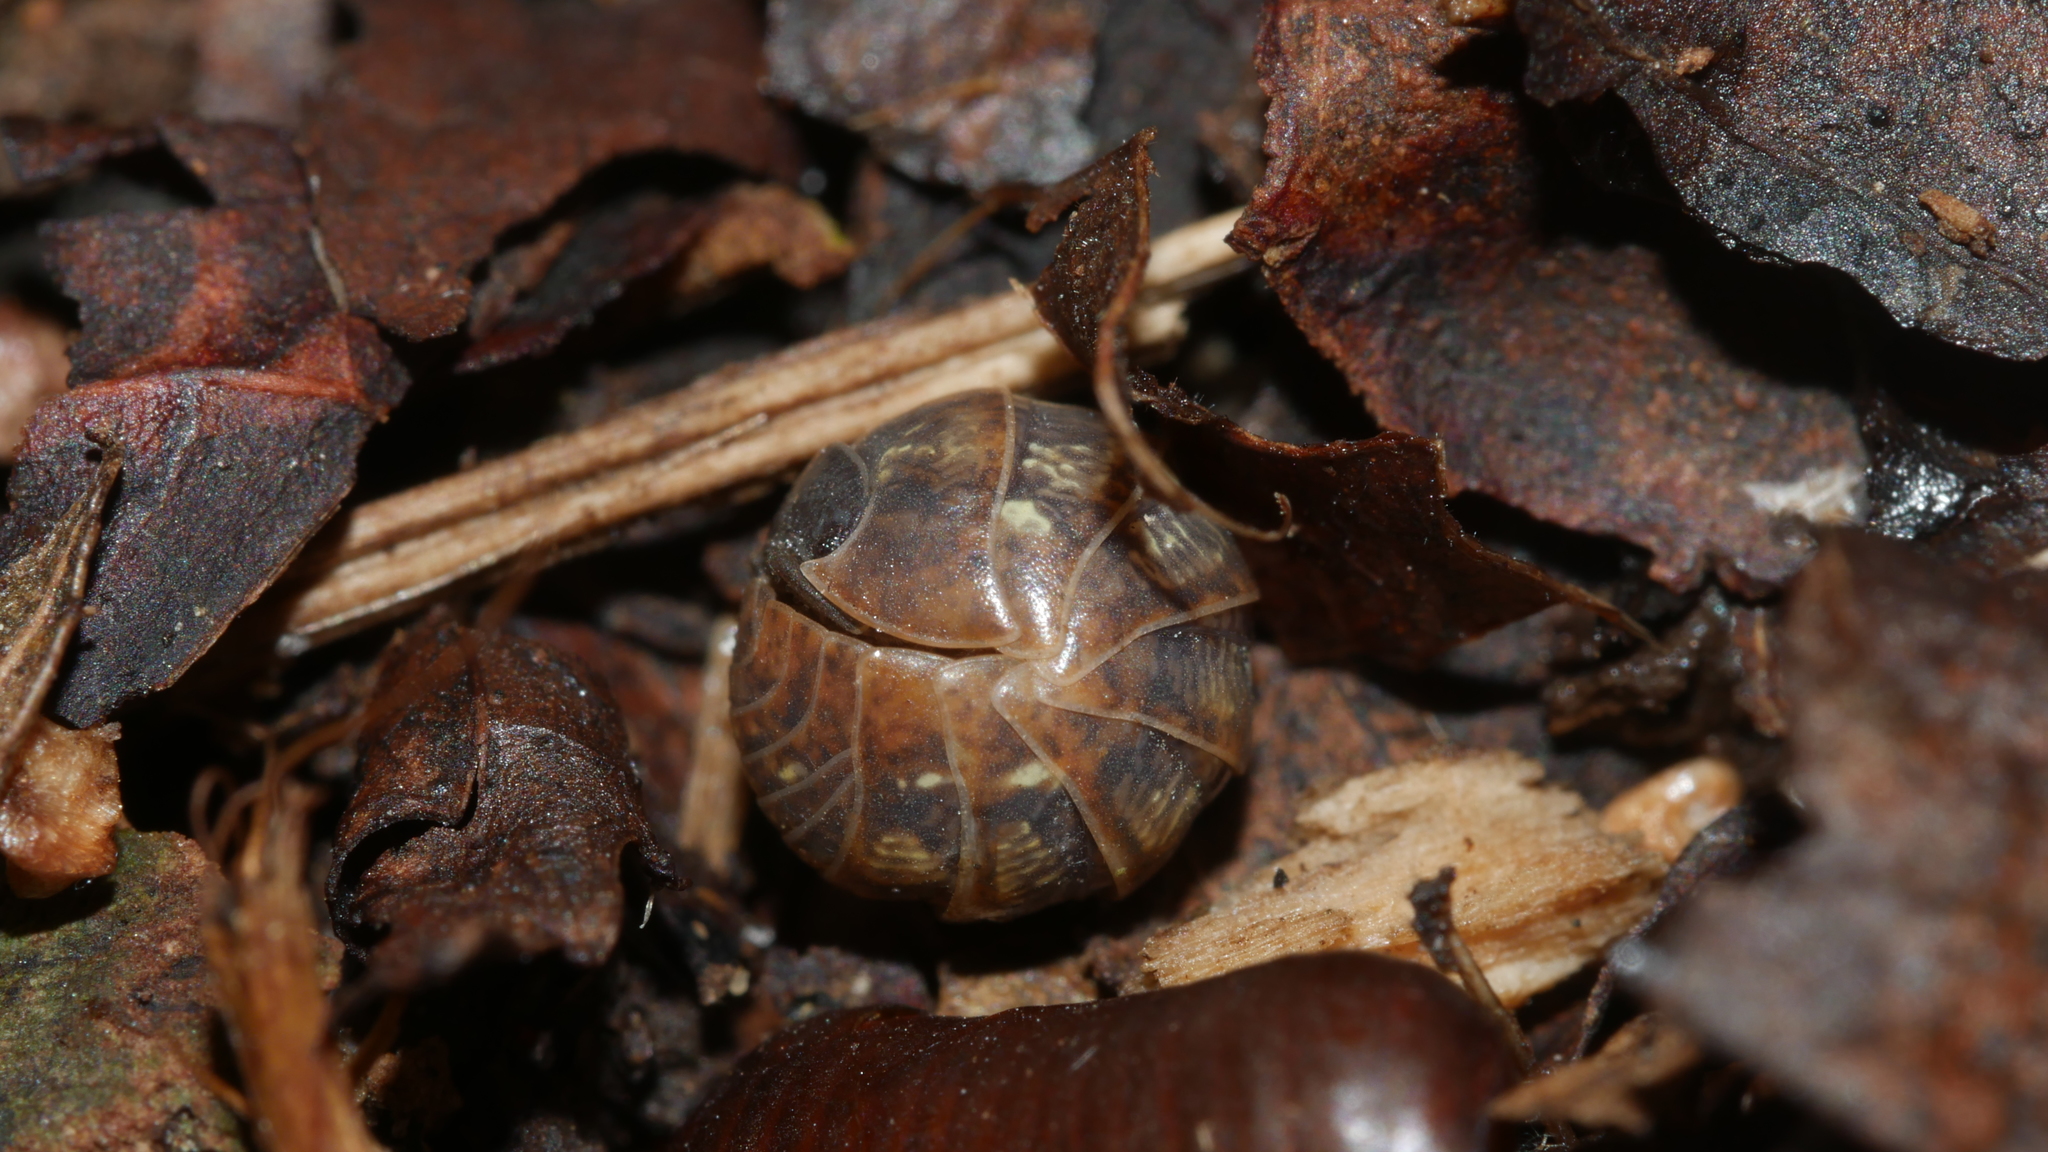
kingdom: Animalia
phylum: Arthropoda
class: Malacostraca
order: Isopoda
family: Armadillidiidae
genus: Armadillidium
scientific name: Armadillidium vulgare
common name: Common pill woodlouse
